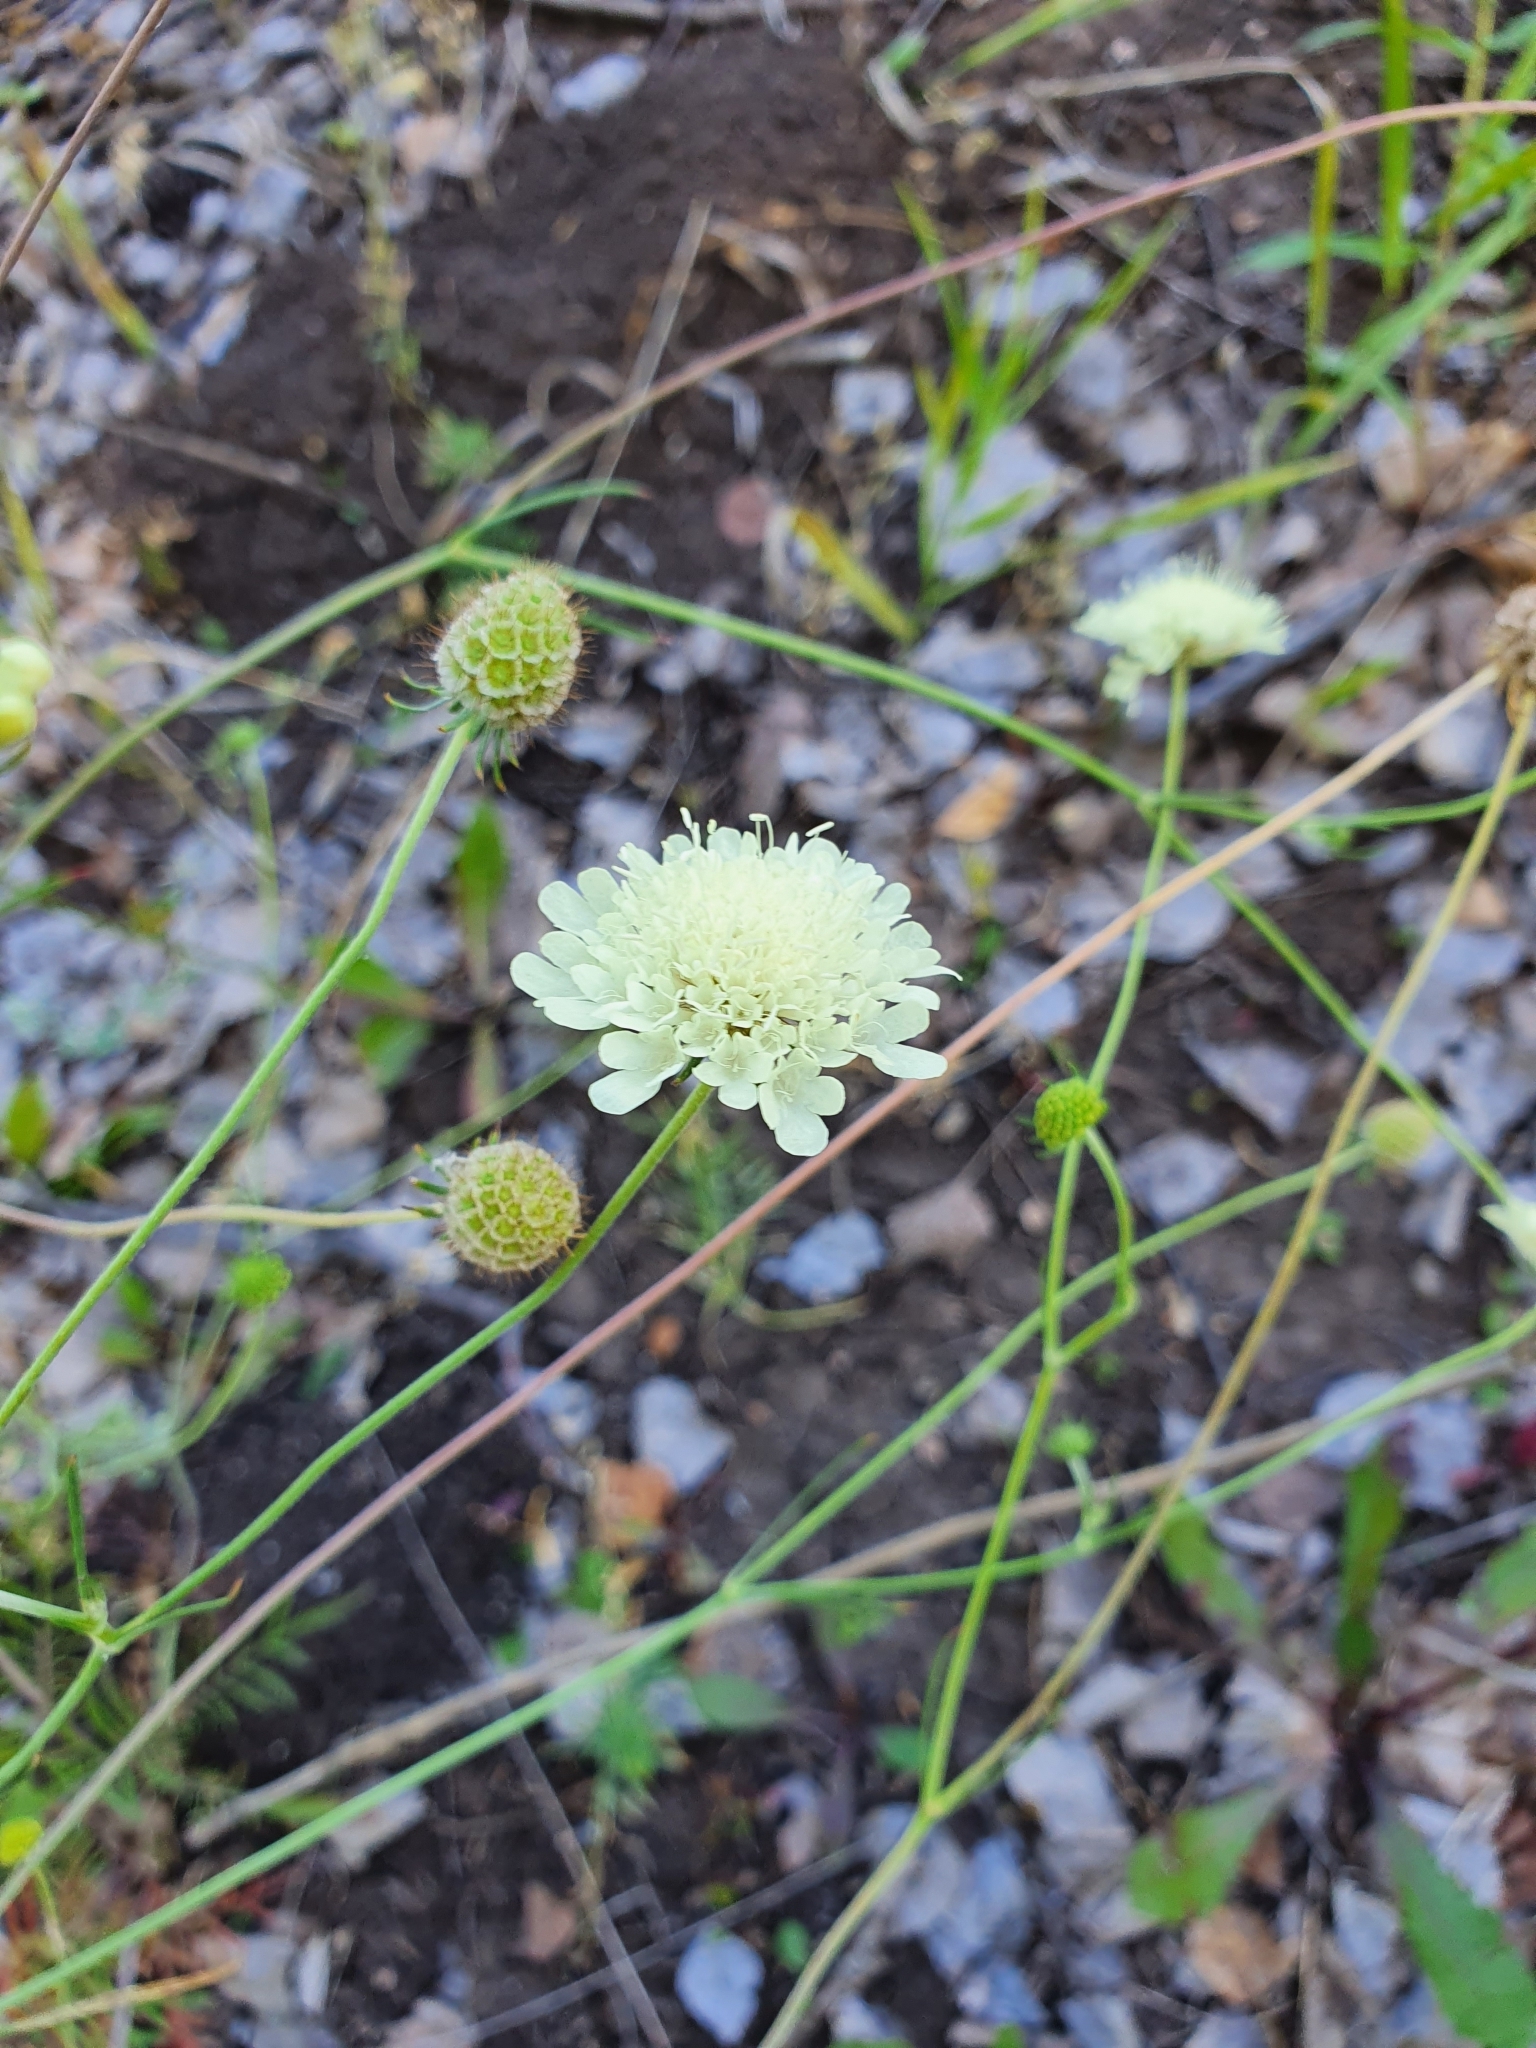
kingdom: Plantae
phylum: Tracheophyta
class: Magnoliopsida
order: Dipsacales
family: Caprifoliaceae
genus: Scabiosa
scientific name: Scabiosa ochroleuca
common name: Cream pincushions
